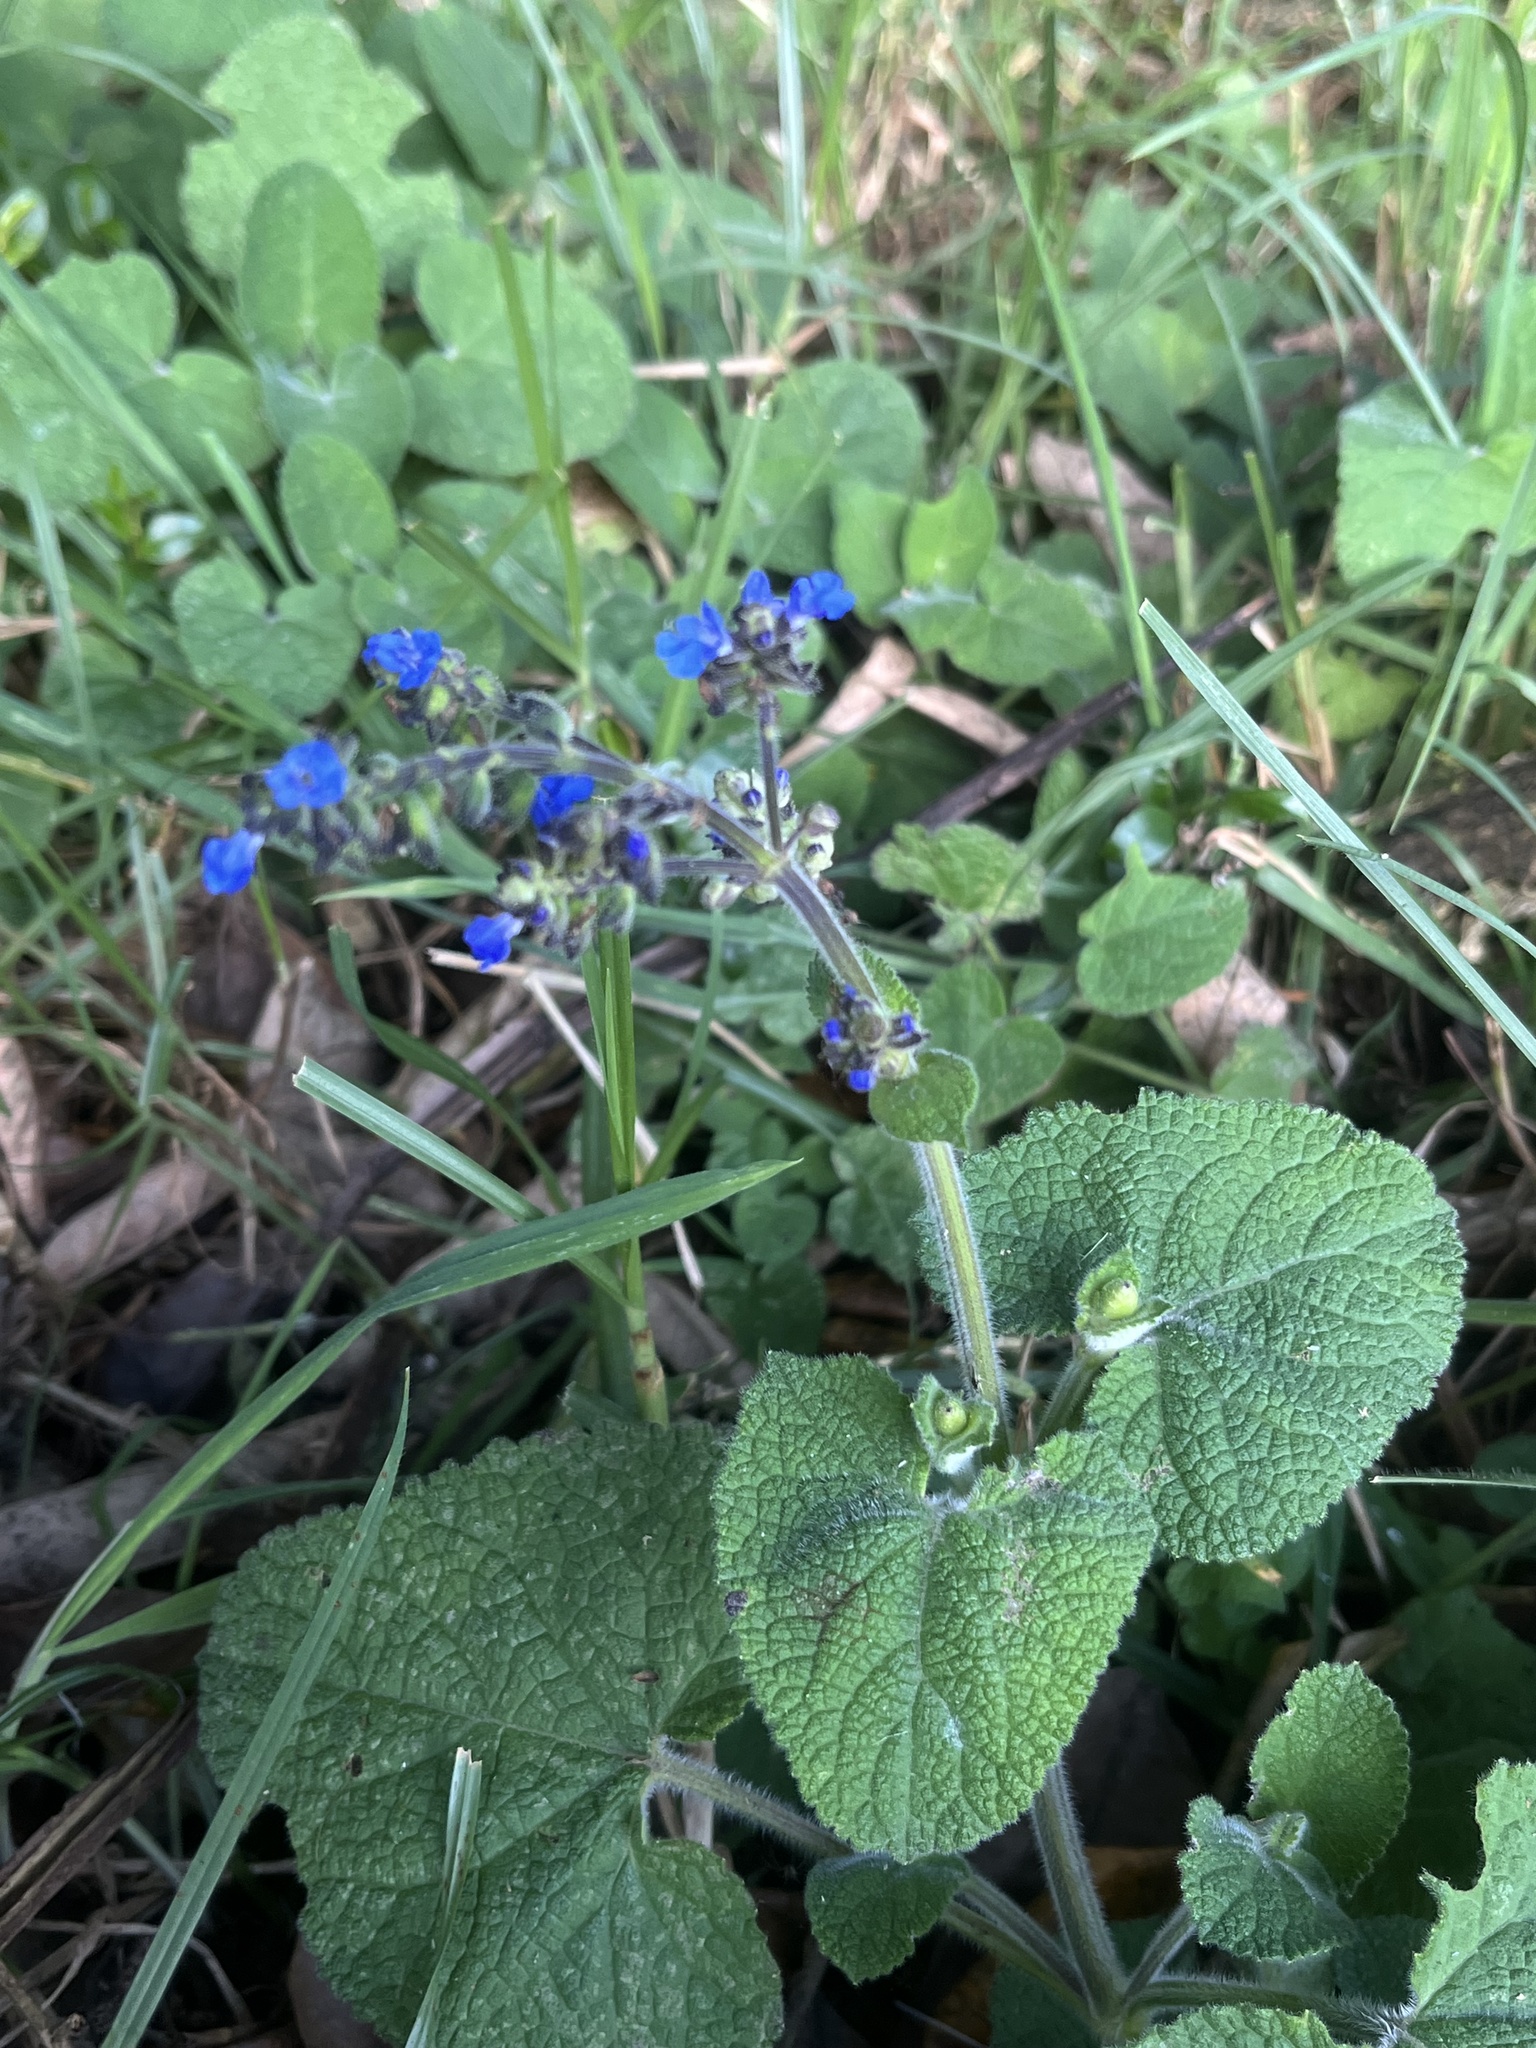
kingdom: Plantae
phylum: Tracheophyta
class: Magnoliopsida
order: Lamiales
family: Lamiaceae
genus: Salvia
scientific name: Salvia palifolia
